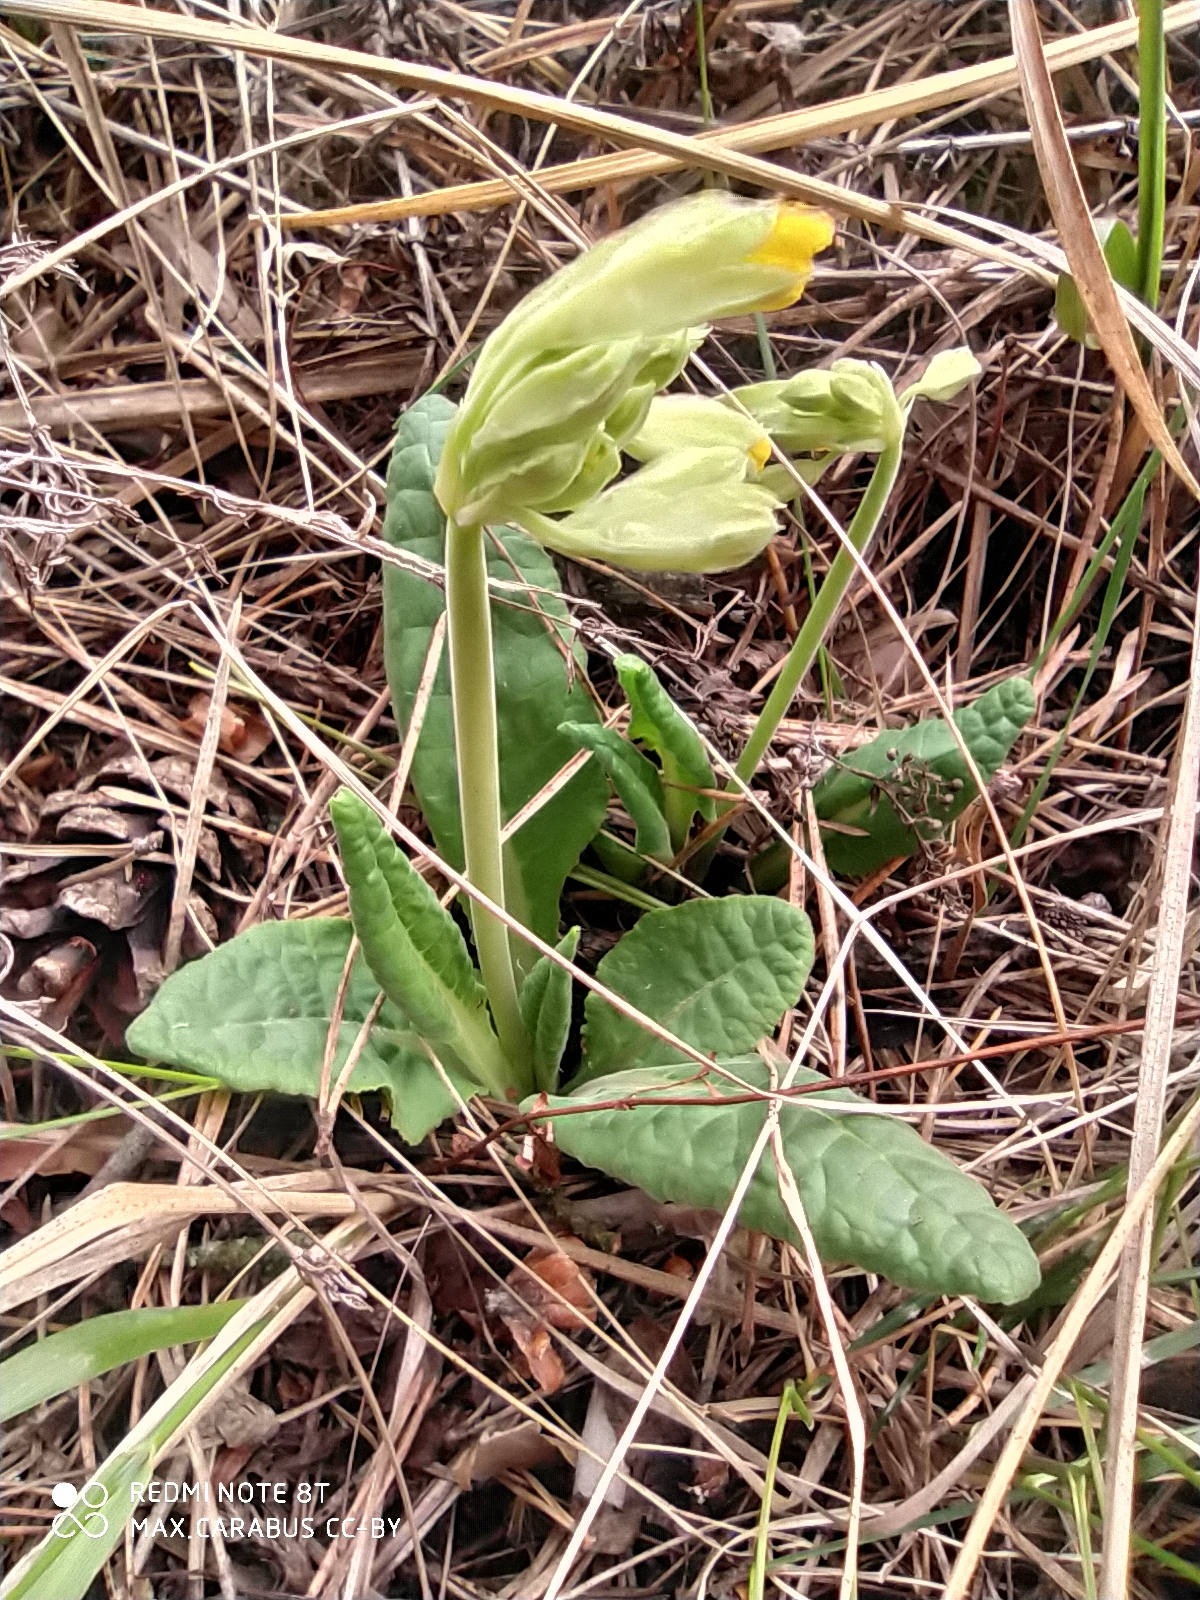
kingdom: Plantae
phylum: Tracheophyta
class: Magnoliopsida
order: Ericales
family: Primulaceae
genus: Primula
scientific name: Primula veris
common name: Cowslip
